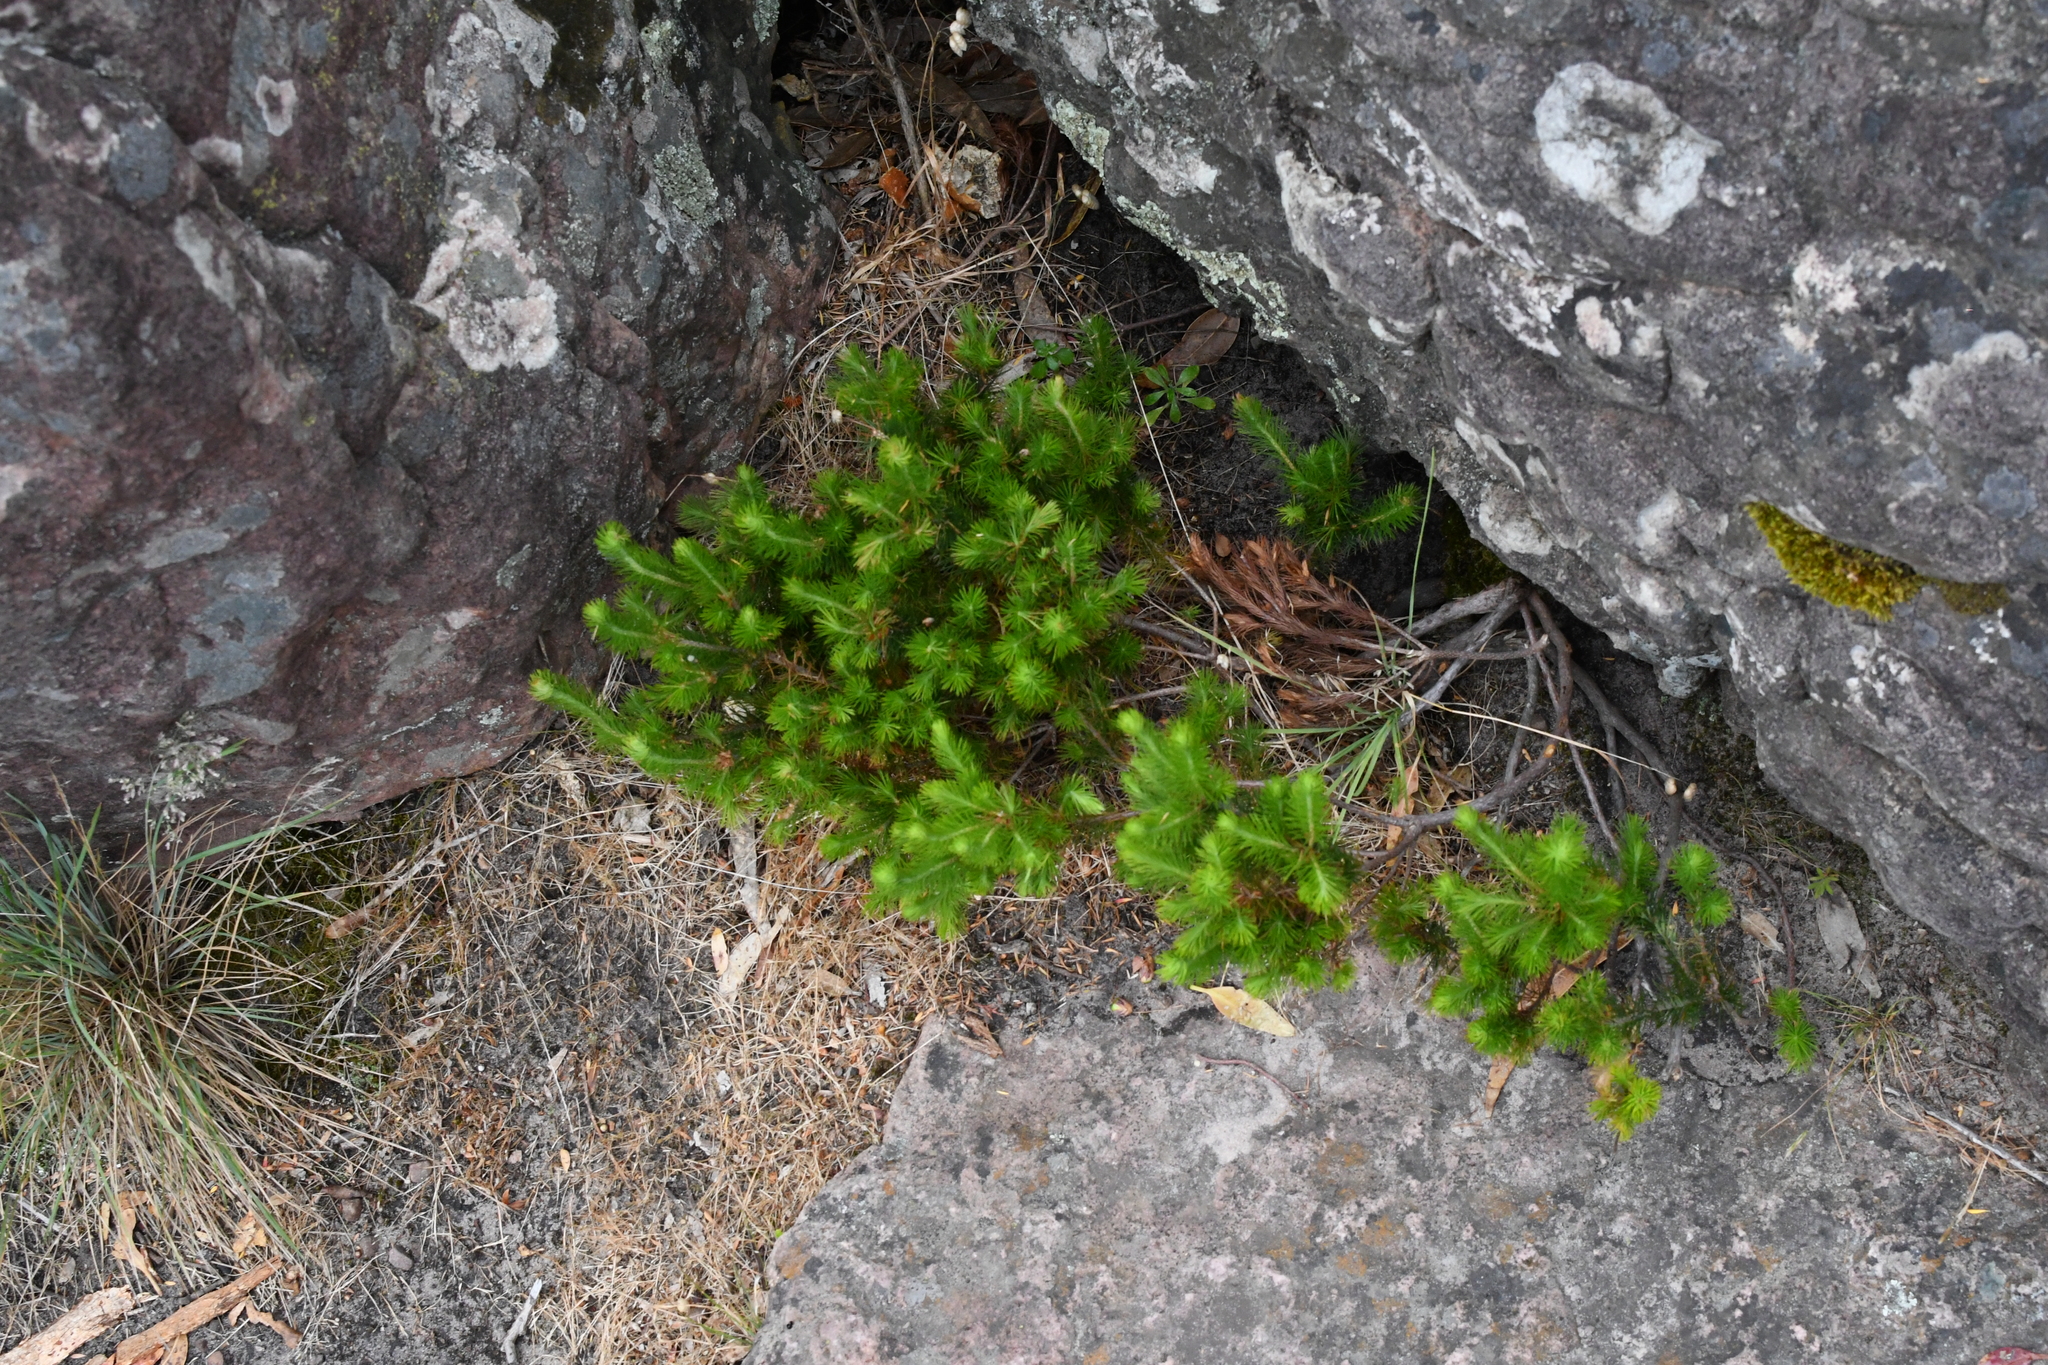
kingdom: Plantae
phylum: Tracheophyta
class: Magnoliopsida
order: Ericales
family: Ericaceae
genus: Stenanthera
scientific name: Stenanthera pinifolia
